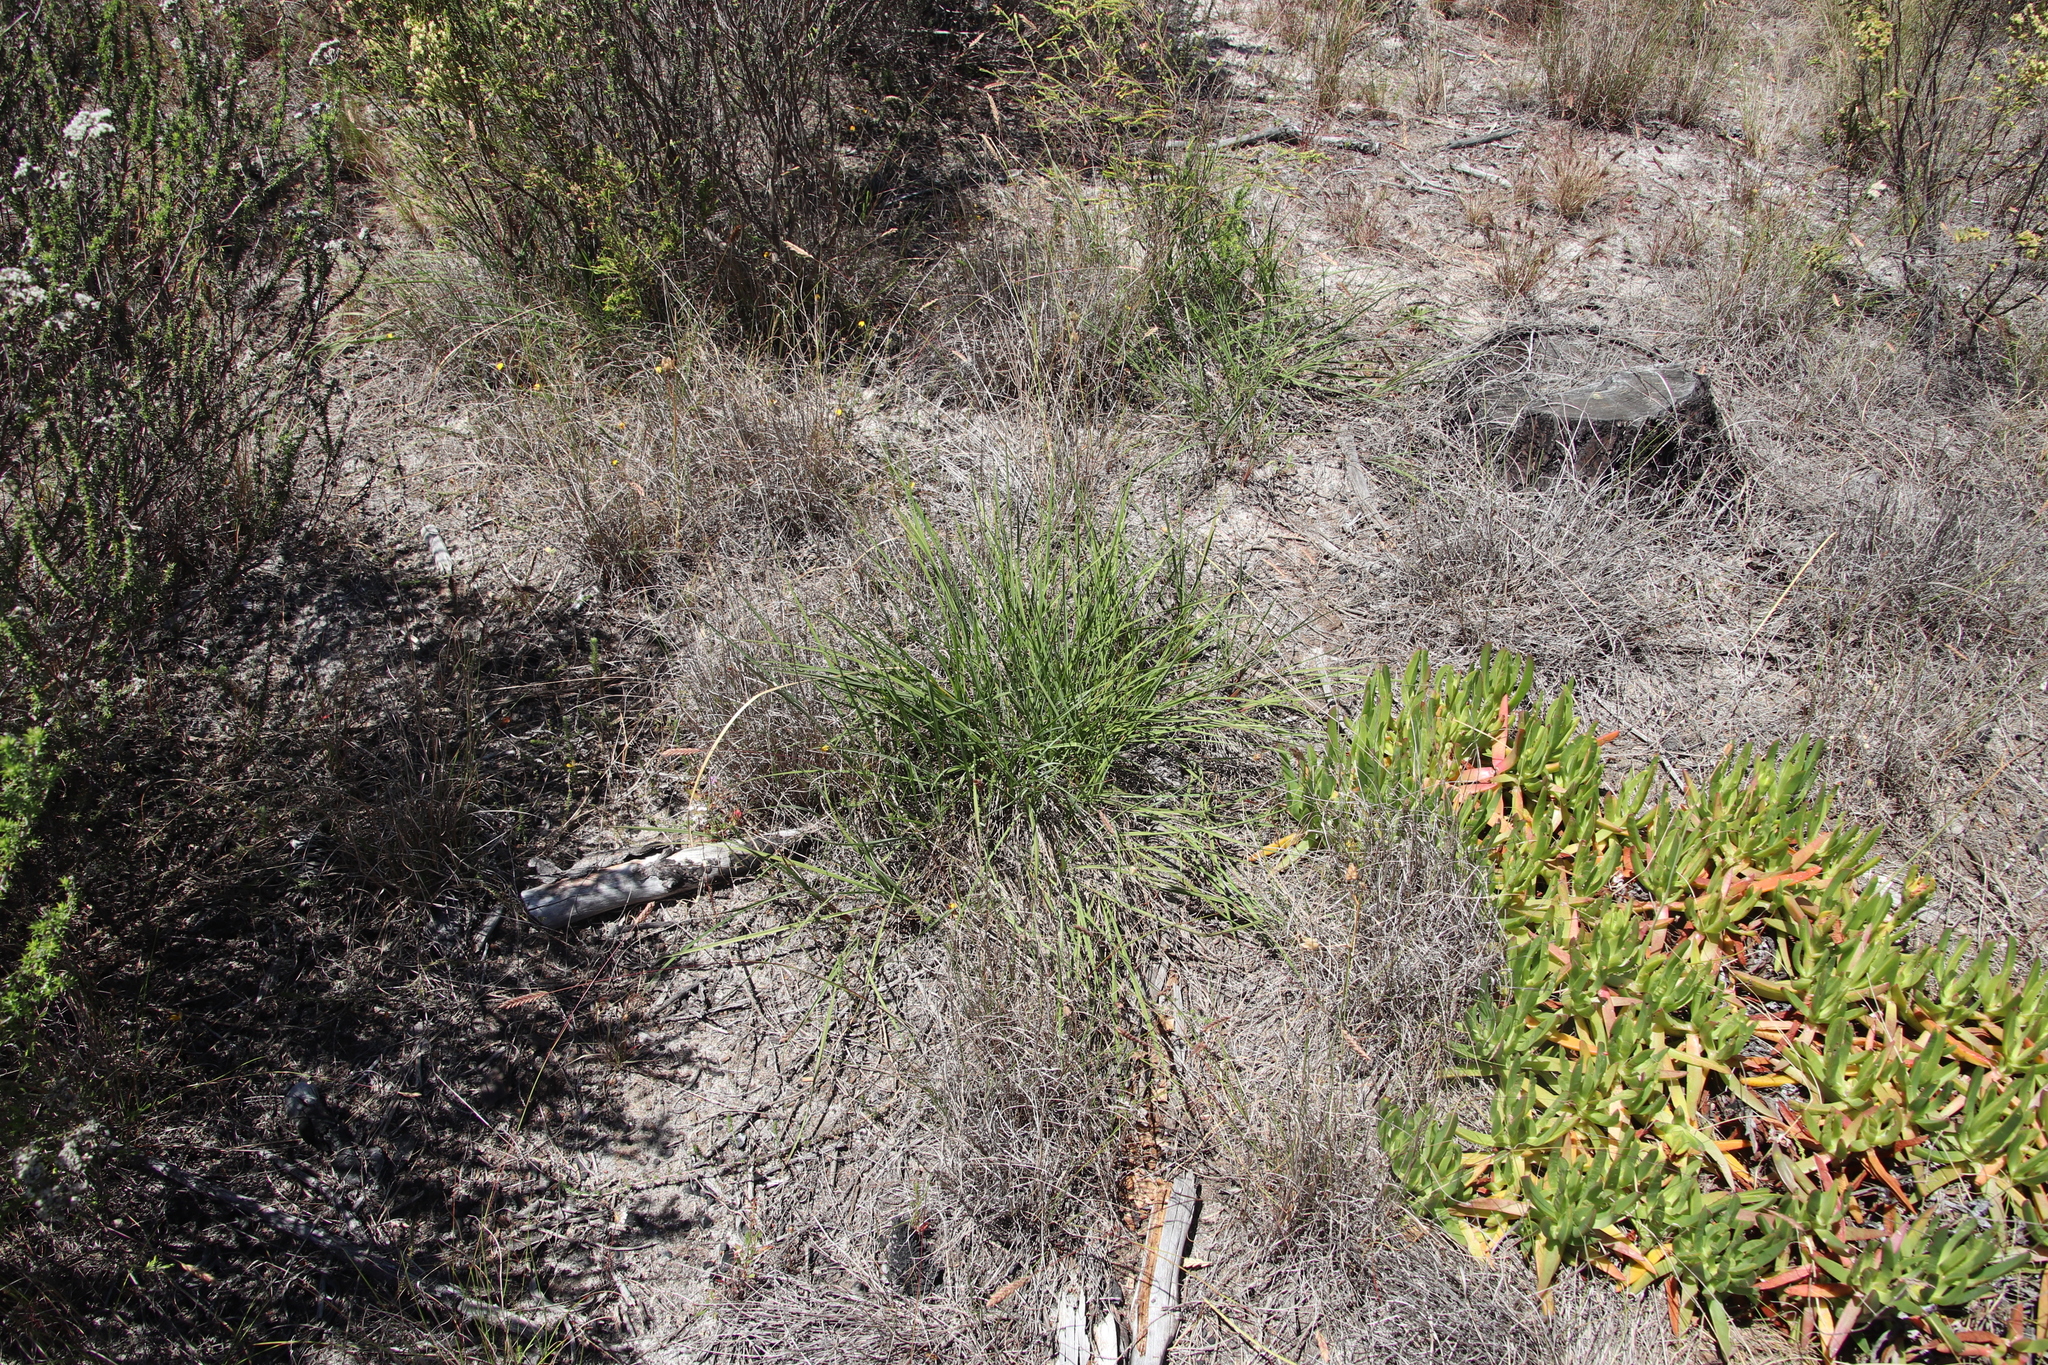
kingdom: Plantae
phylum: Tracheophyta
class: Liliopsida
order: Asparagales
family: Asphodelaceae
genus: Caesia
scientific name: Caesia contorta
